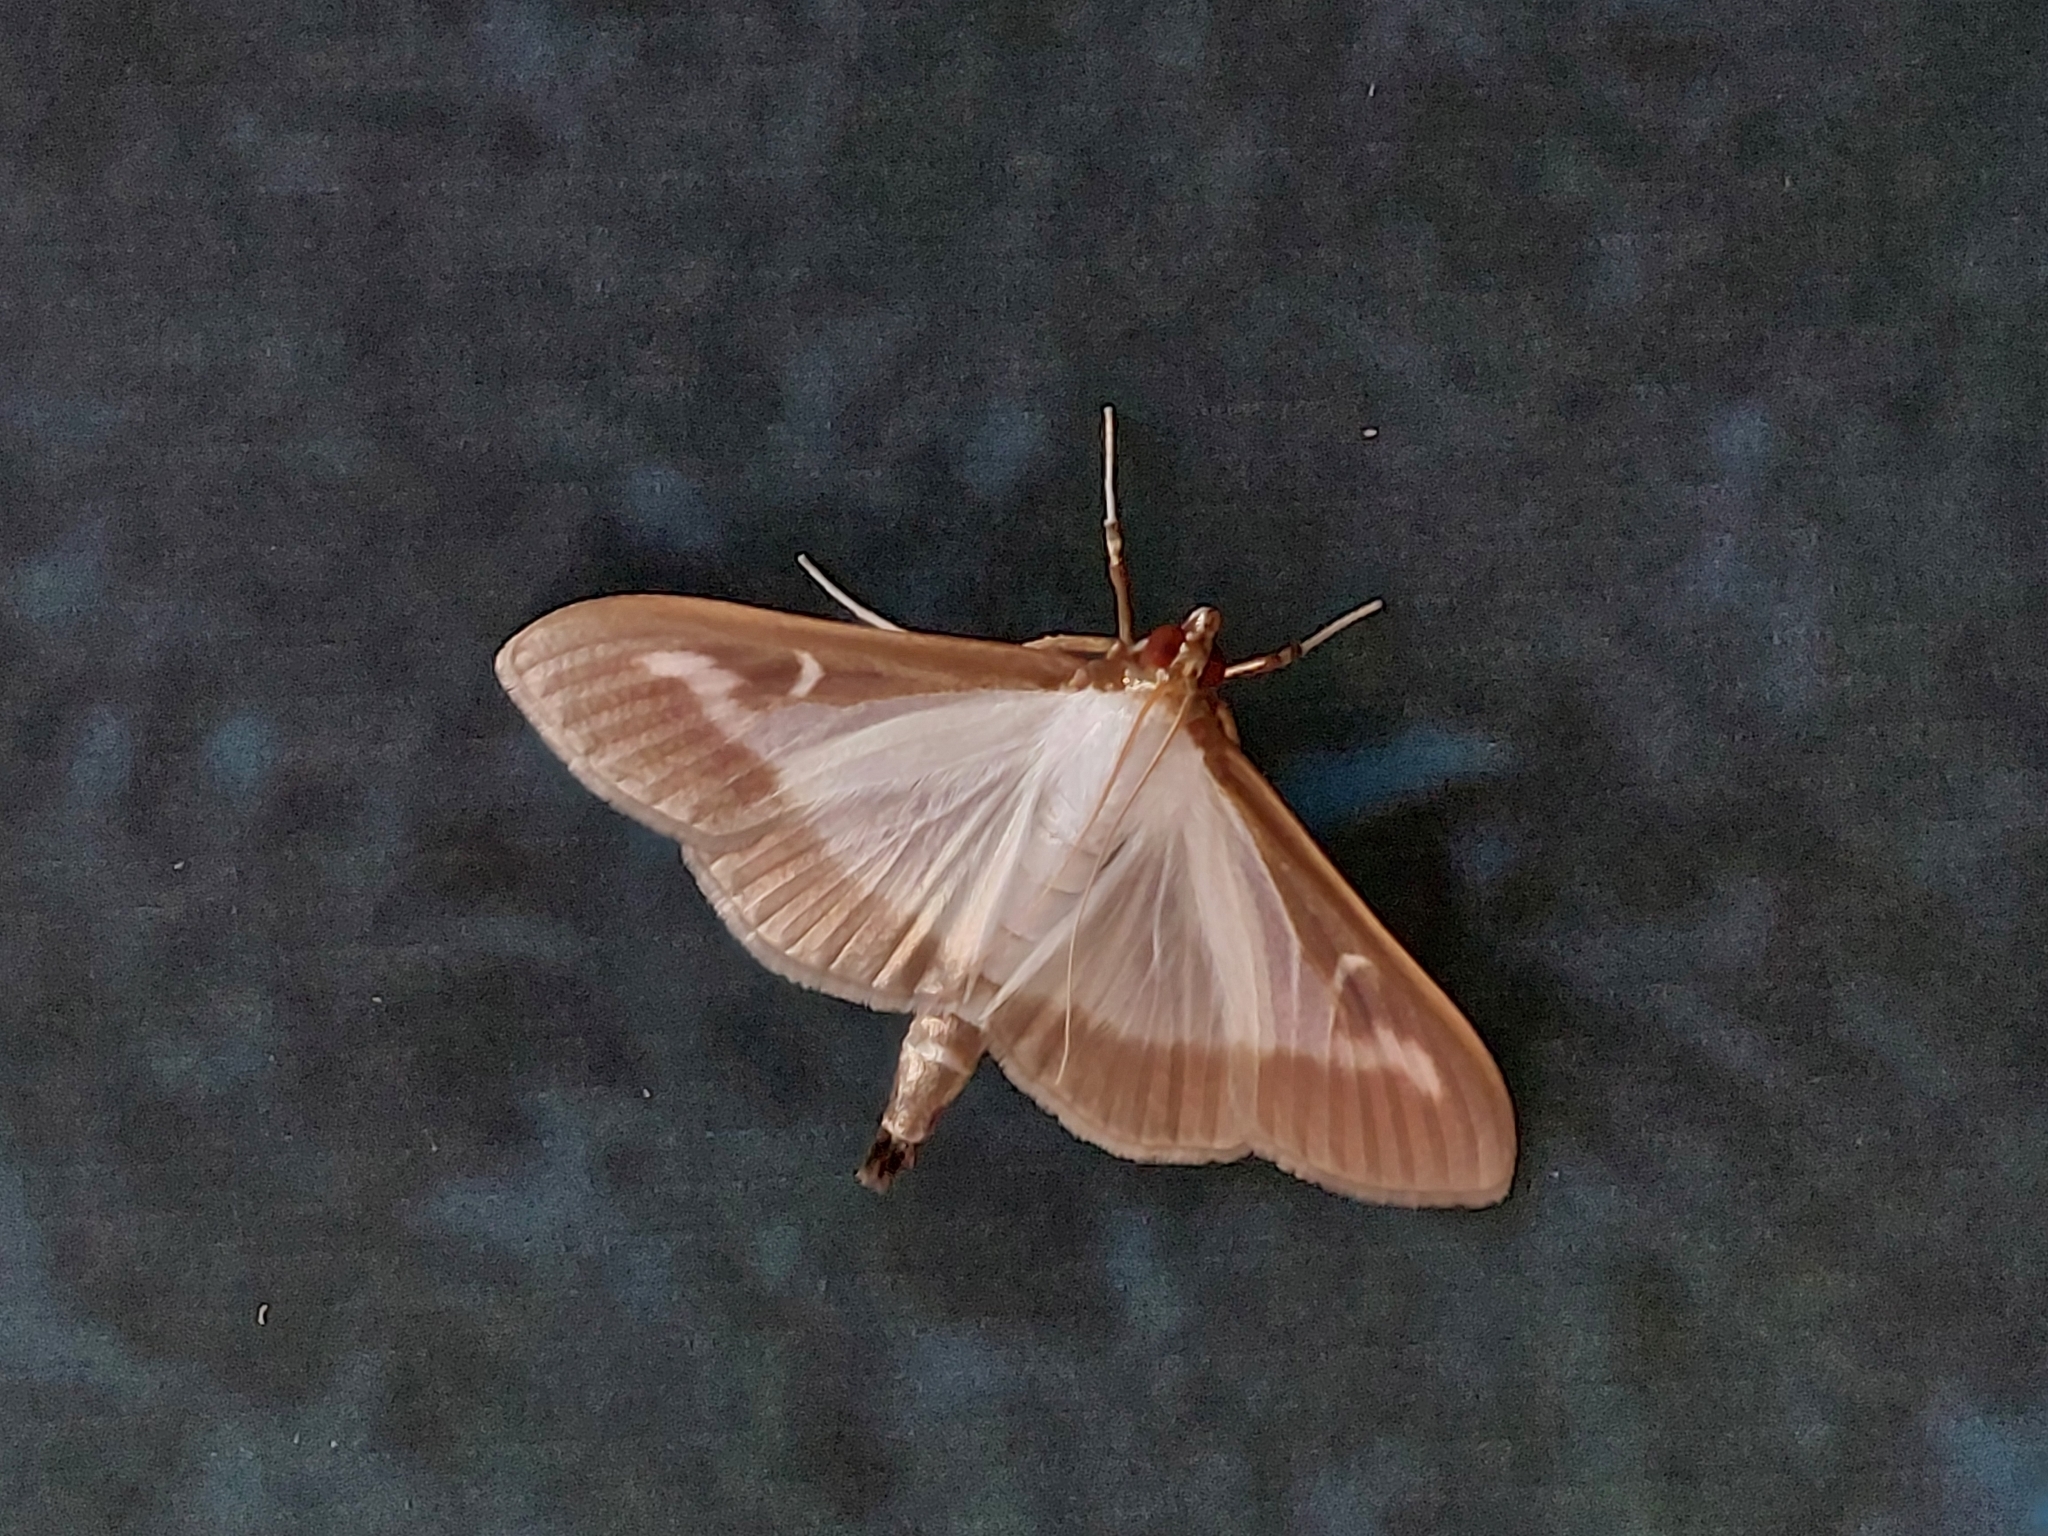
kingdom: Animalia
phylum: Arthropoda
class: Insecta
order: Lepidoptera
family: Crambidae
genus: Cydalima
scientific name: Cydalima perspectalis
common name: Box tree moth
